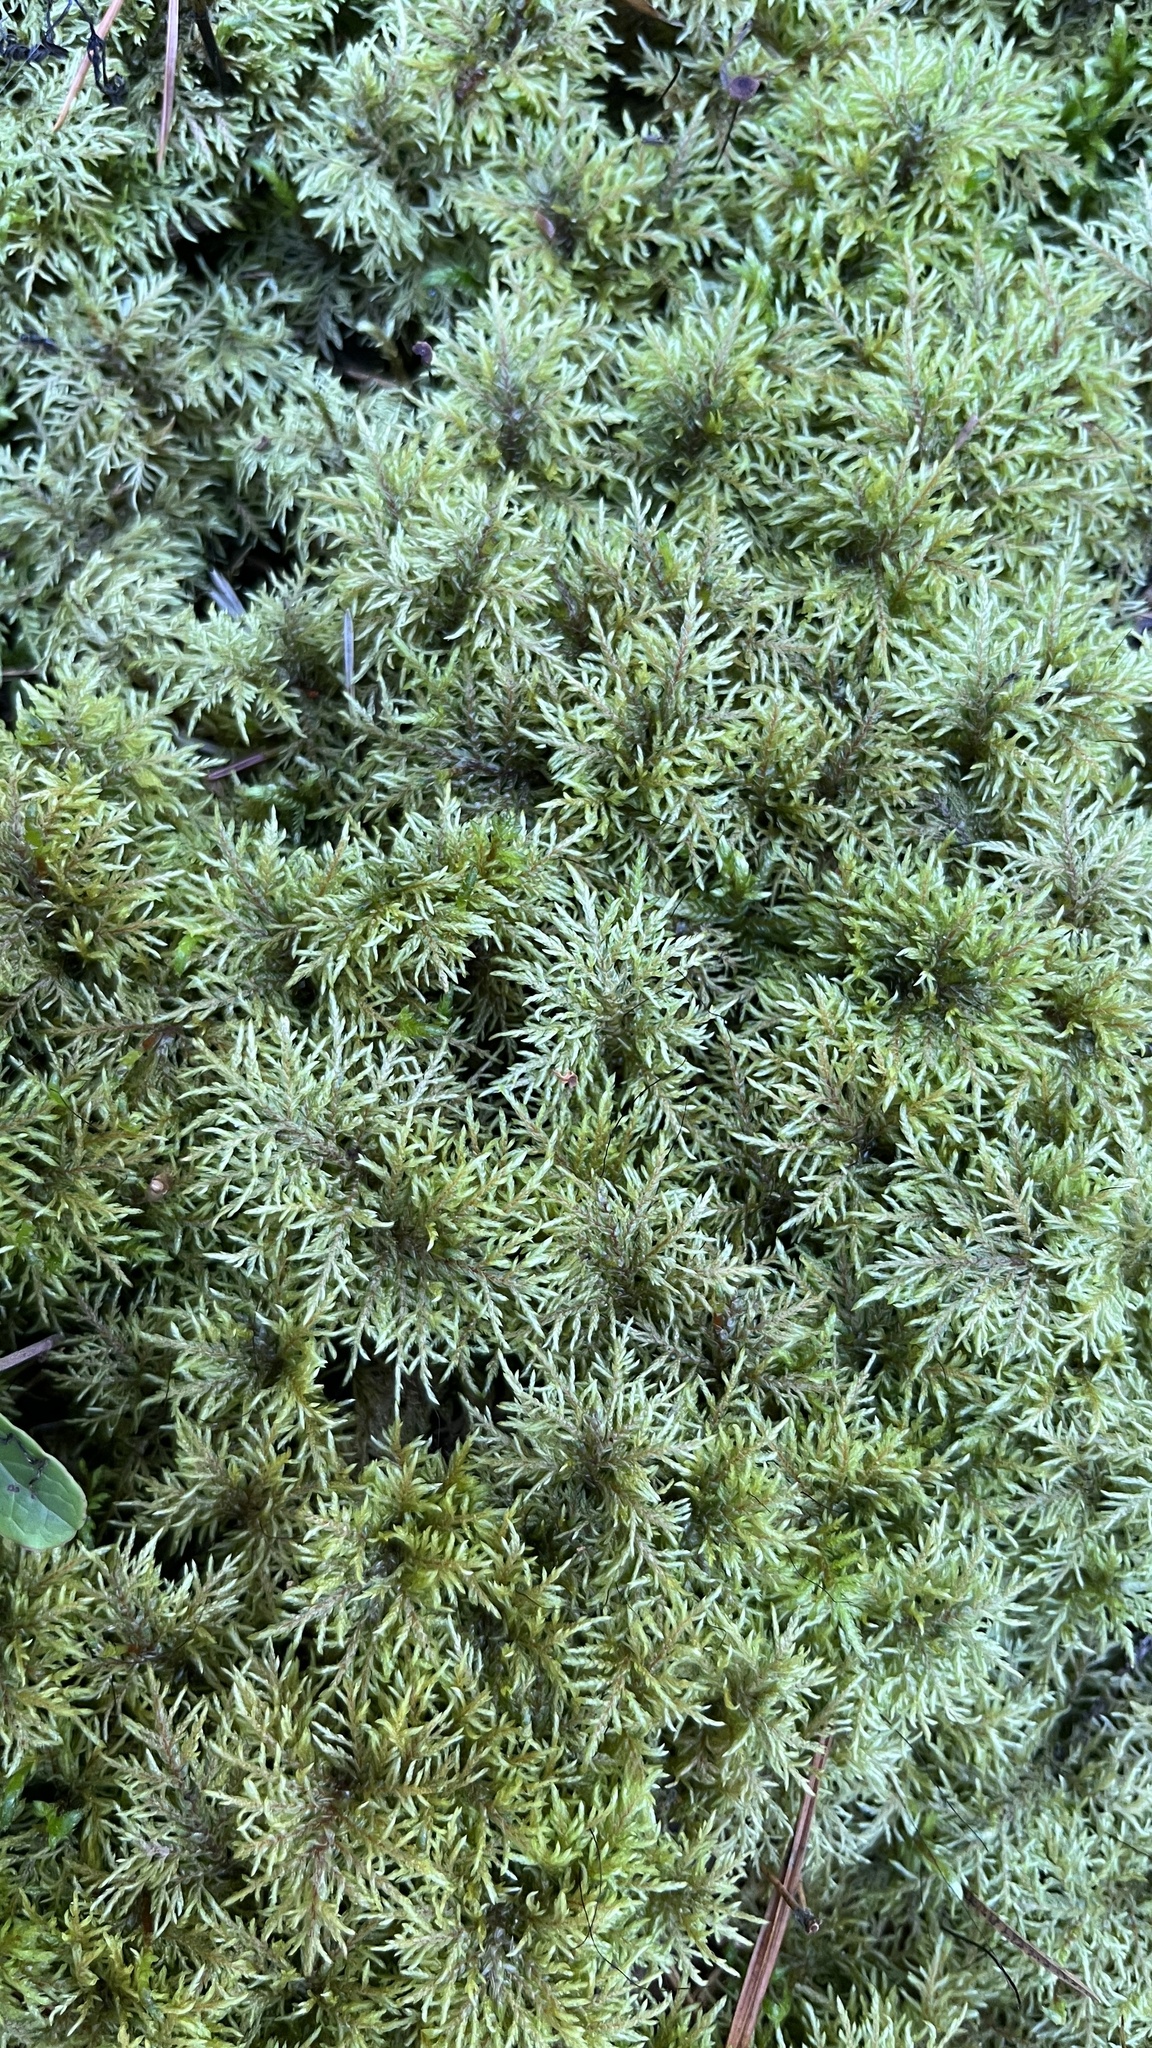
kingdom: Plantae
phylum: Bryophyta
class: Bryopsida
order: Hypnales
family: Hylocomiaceae
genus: Hylocomium
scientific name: Hylocomium splendens
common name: Stairstep moss
